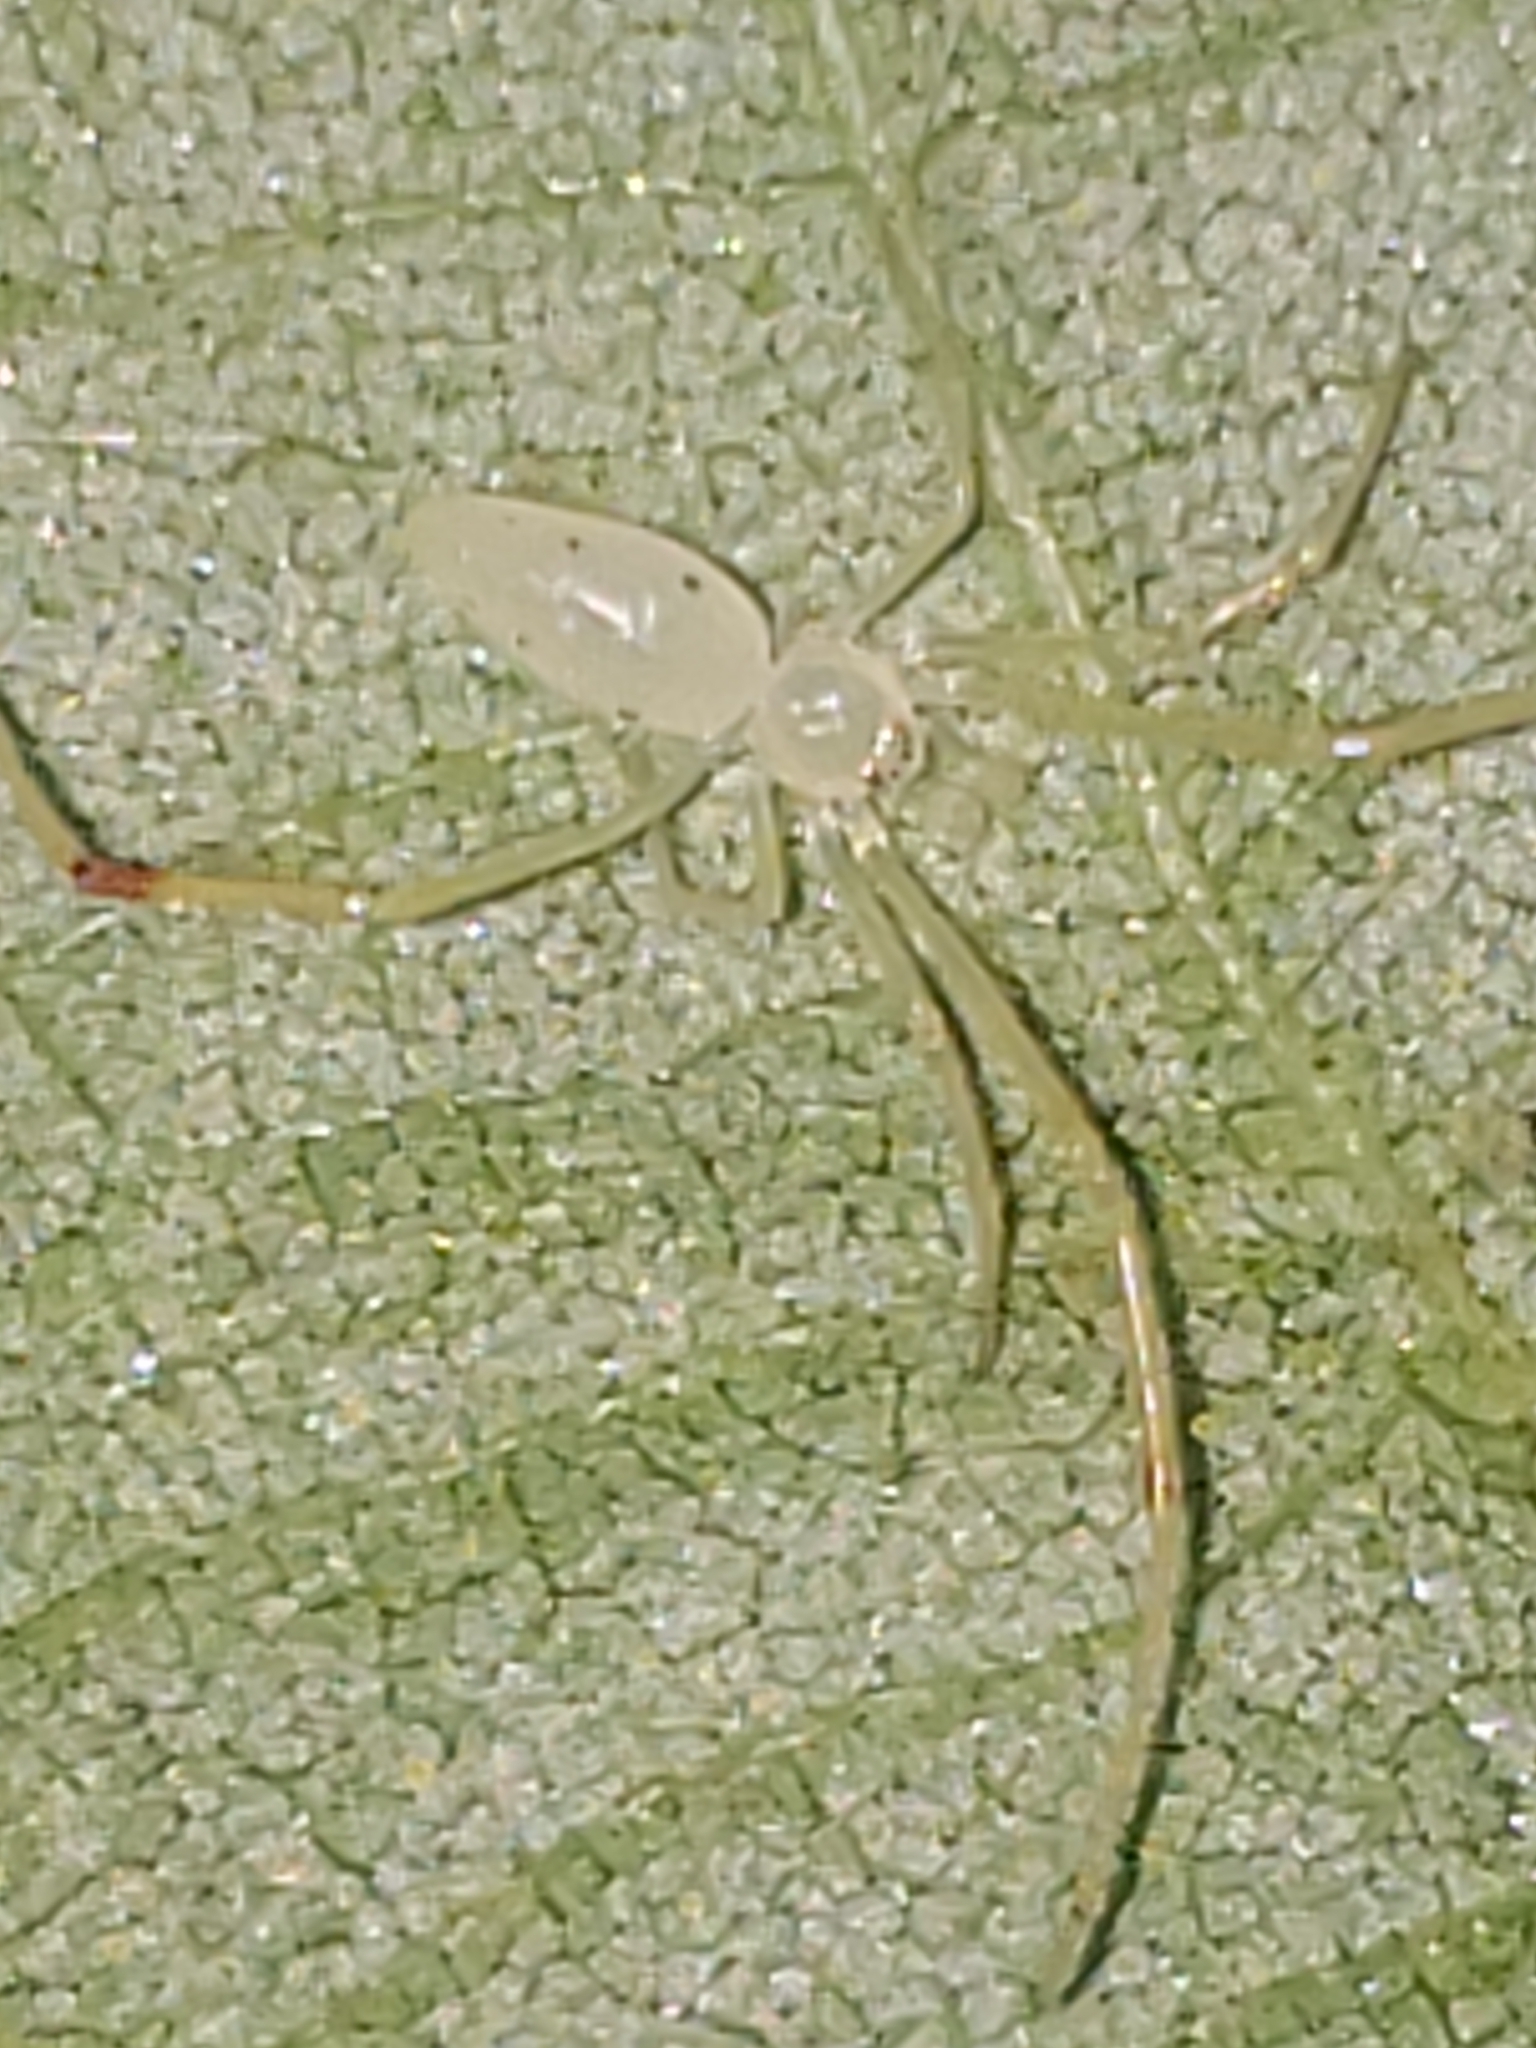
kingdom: Animalia
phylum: Arthropoda
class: Arachnida
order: Araneae
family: Theridiidae
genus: Spintharus
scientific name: Spintharus flavidus
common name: Cobweb spiders
